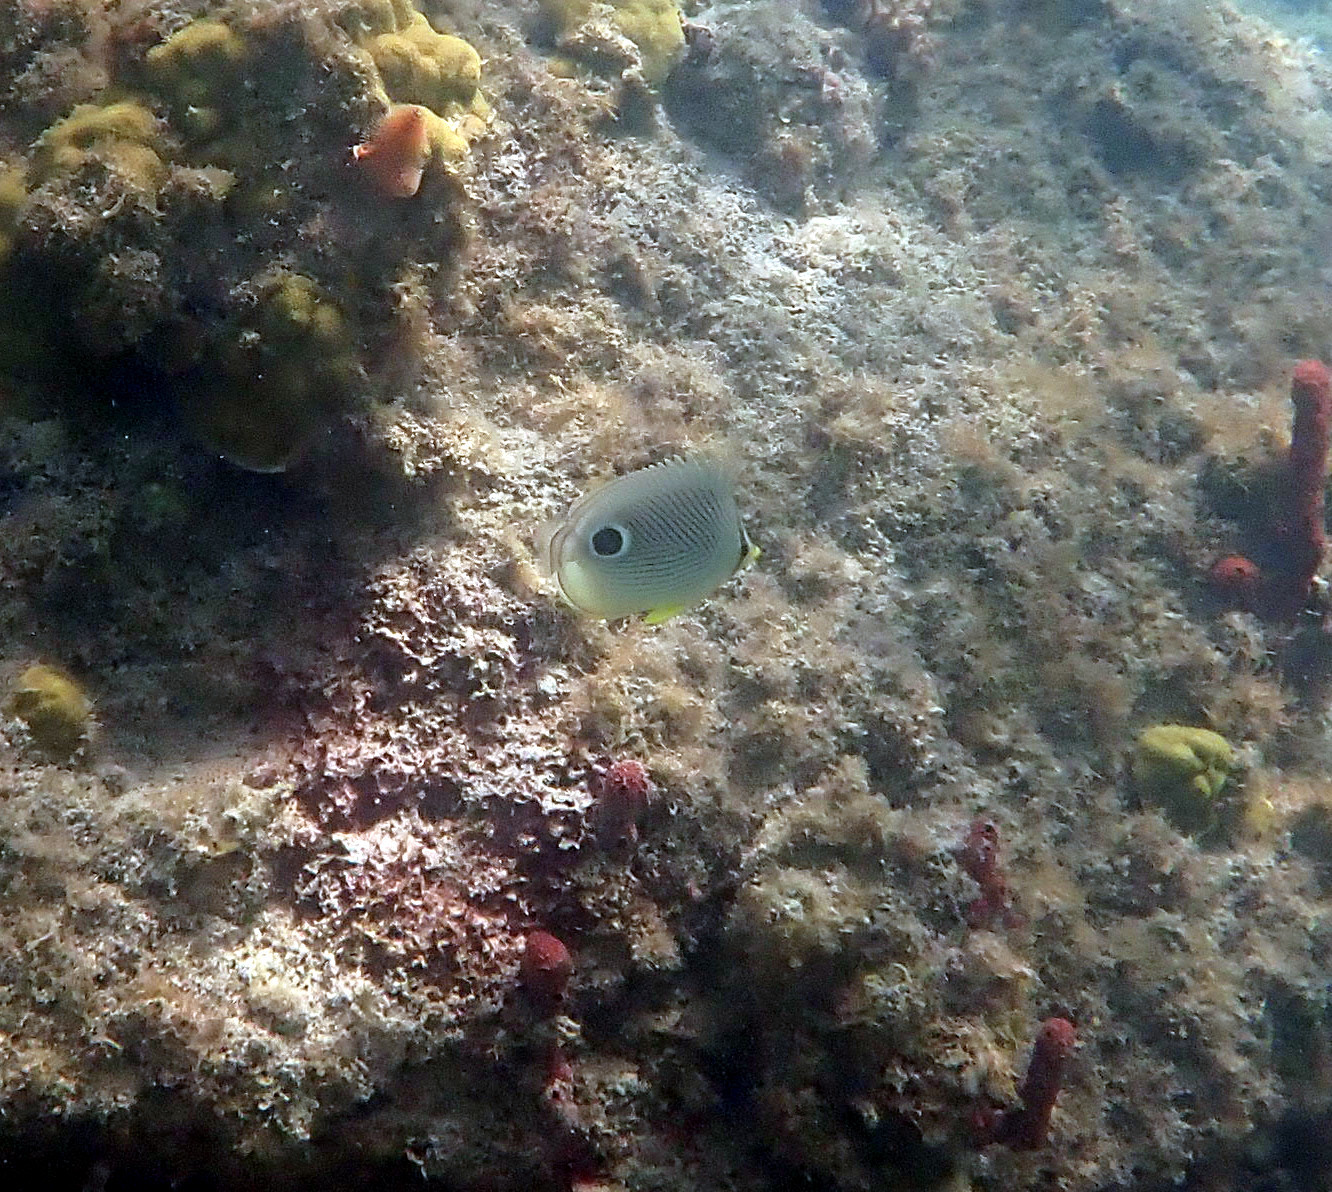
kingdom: Animalia
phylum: Chordata
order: Perciformes
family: Chaetodontidae
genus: Chaetodon
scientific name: Chaetodon capistratus
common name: Kete
